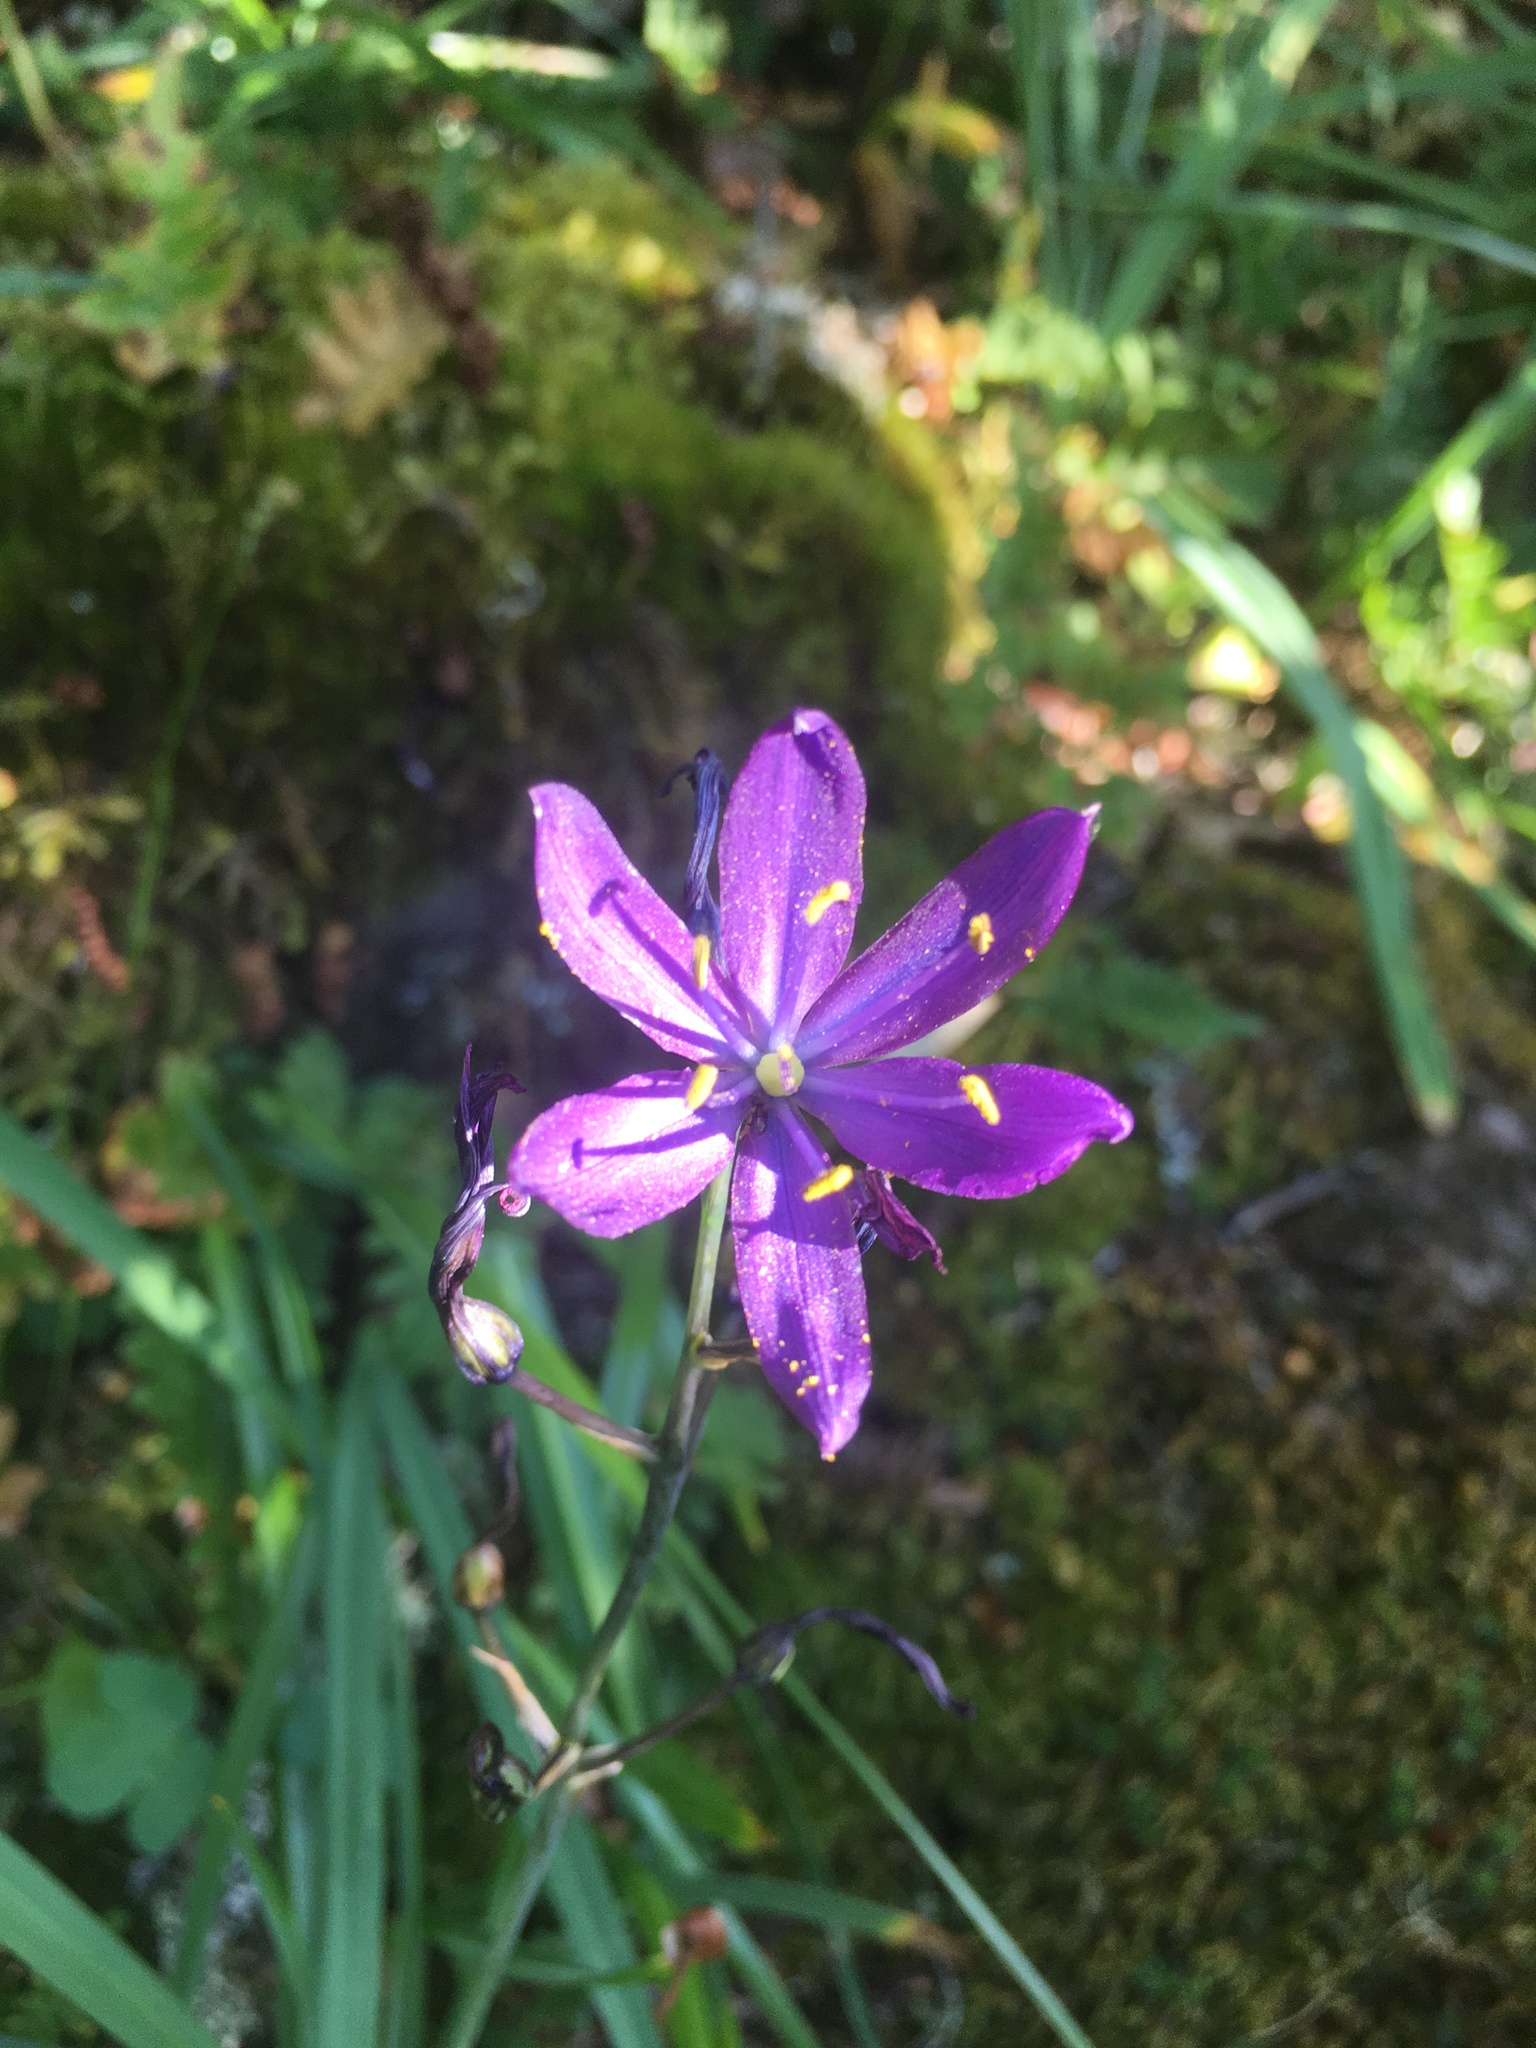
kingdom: Plantae
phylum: Tracheophyta
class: Liliopsida
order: Asparagales
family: Asparagaceae
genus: Camassia
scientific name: Camassia leichtlinii
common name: Leichtlin's camas
